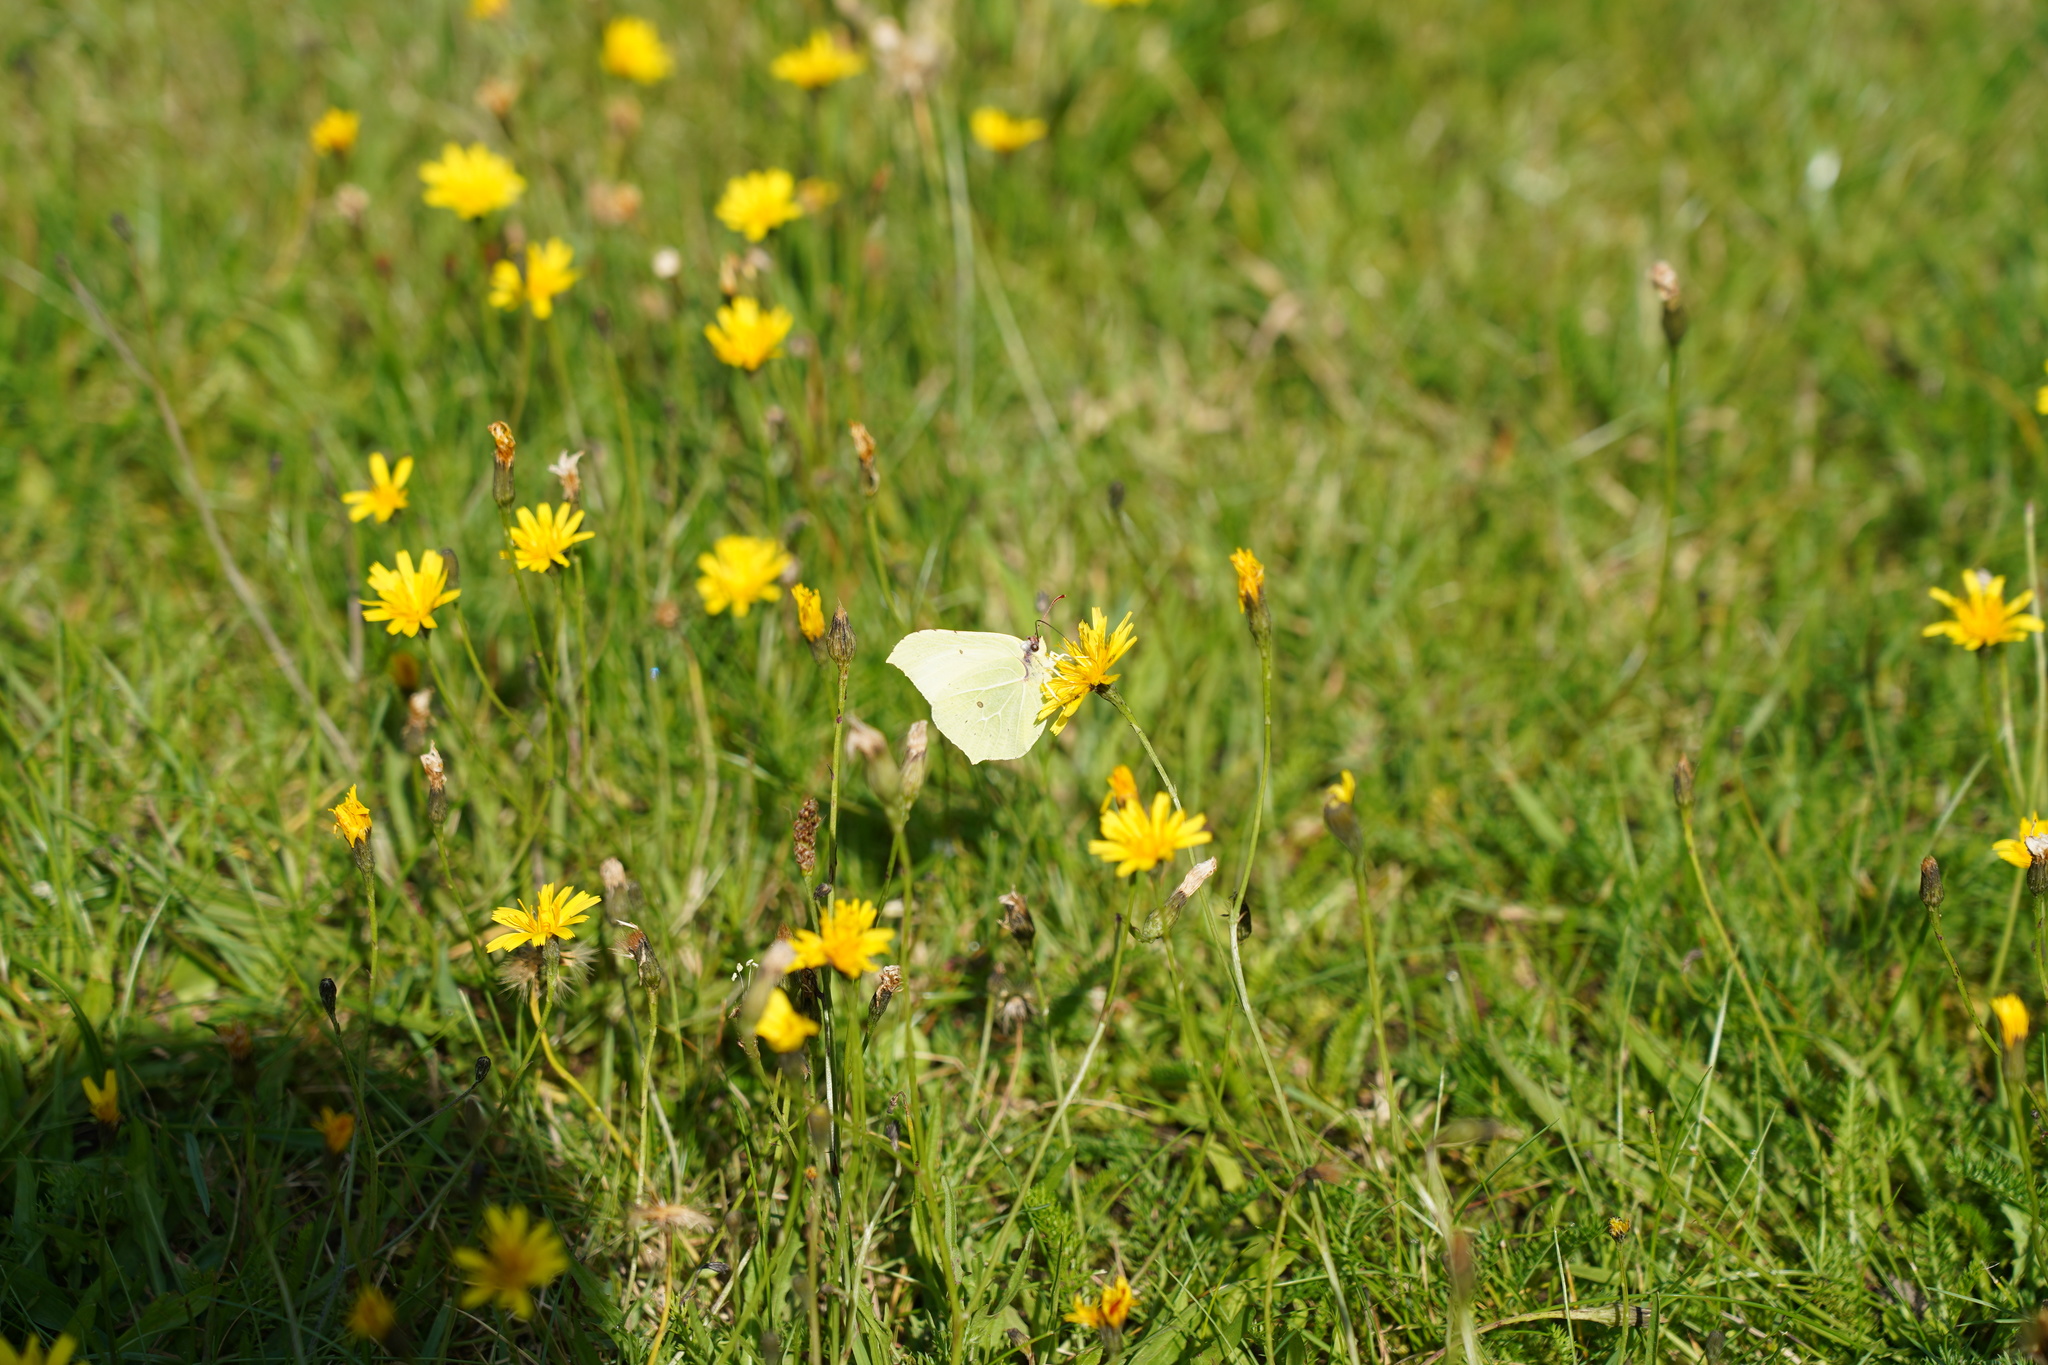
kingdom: Animalia
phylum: Arthropoda
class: Insecta
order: Lepidoptera
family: Pieridae
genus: Gonepteryx
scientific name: Gonepteryx rhamni
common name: Brimstone
